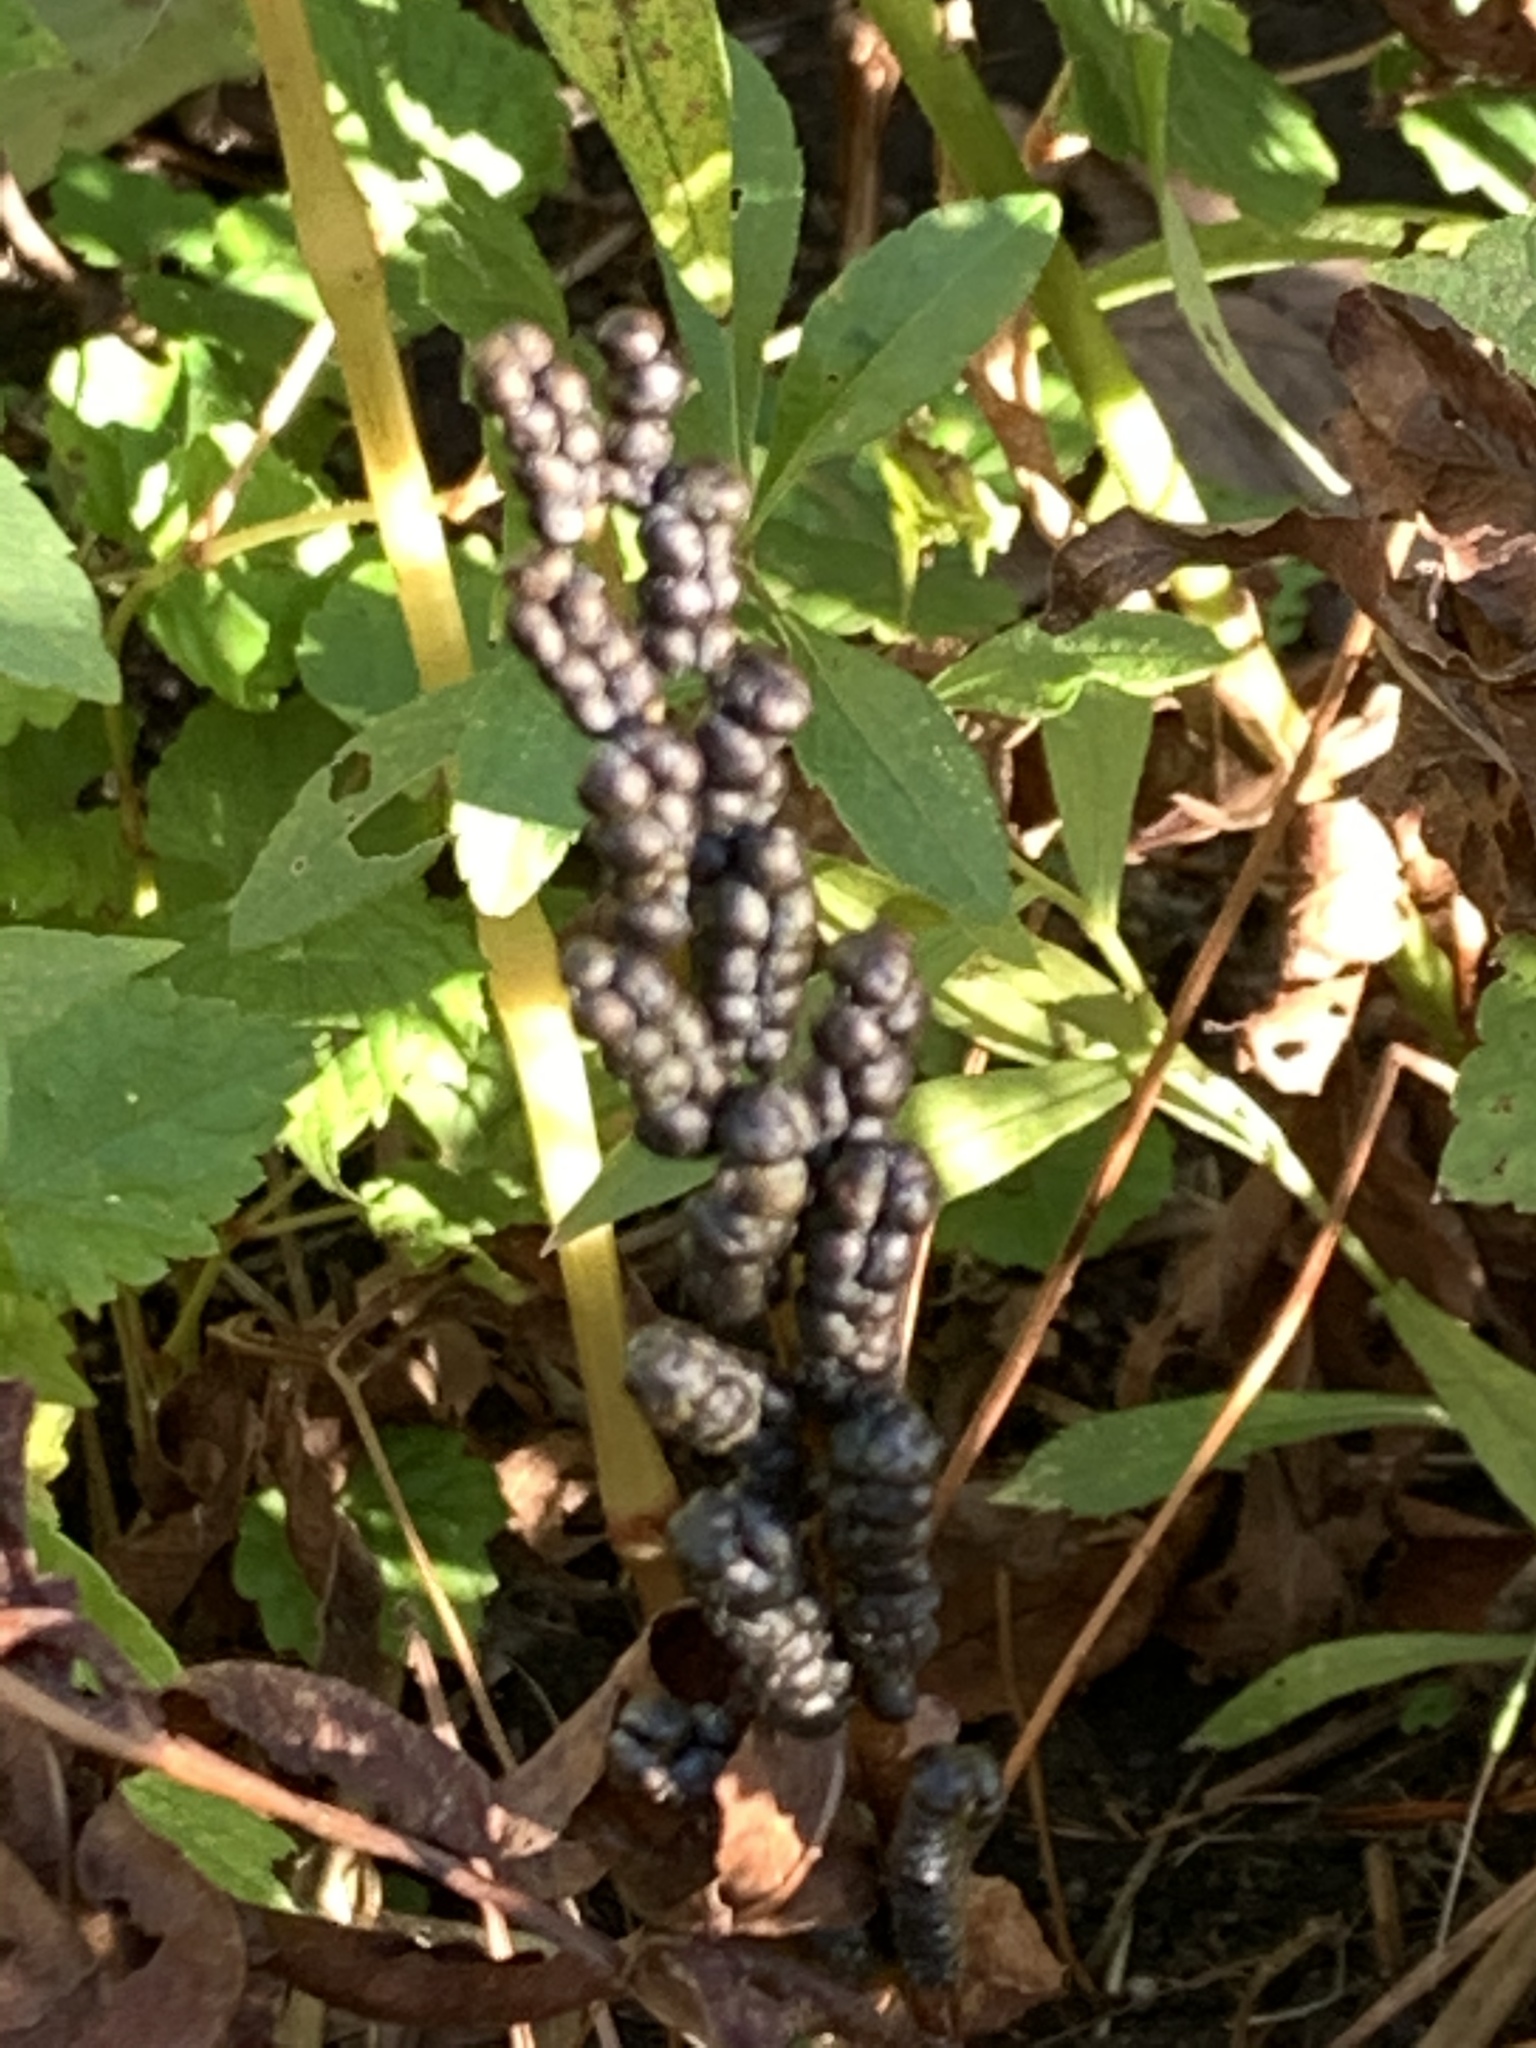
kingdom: Plantae
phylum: Tracheophyta
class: Polypodiopsida
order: Polypodiales
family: Onocleaceae
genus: Onoclea
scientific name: Onoclea sensibilis
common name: Sensitive fern
